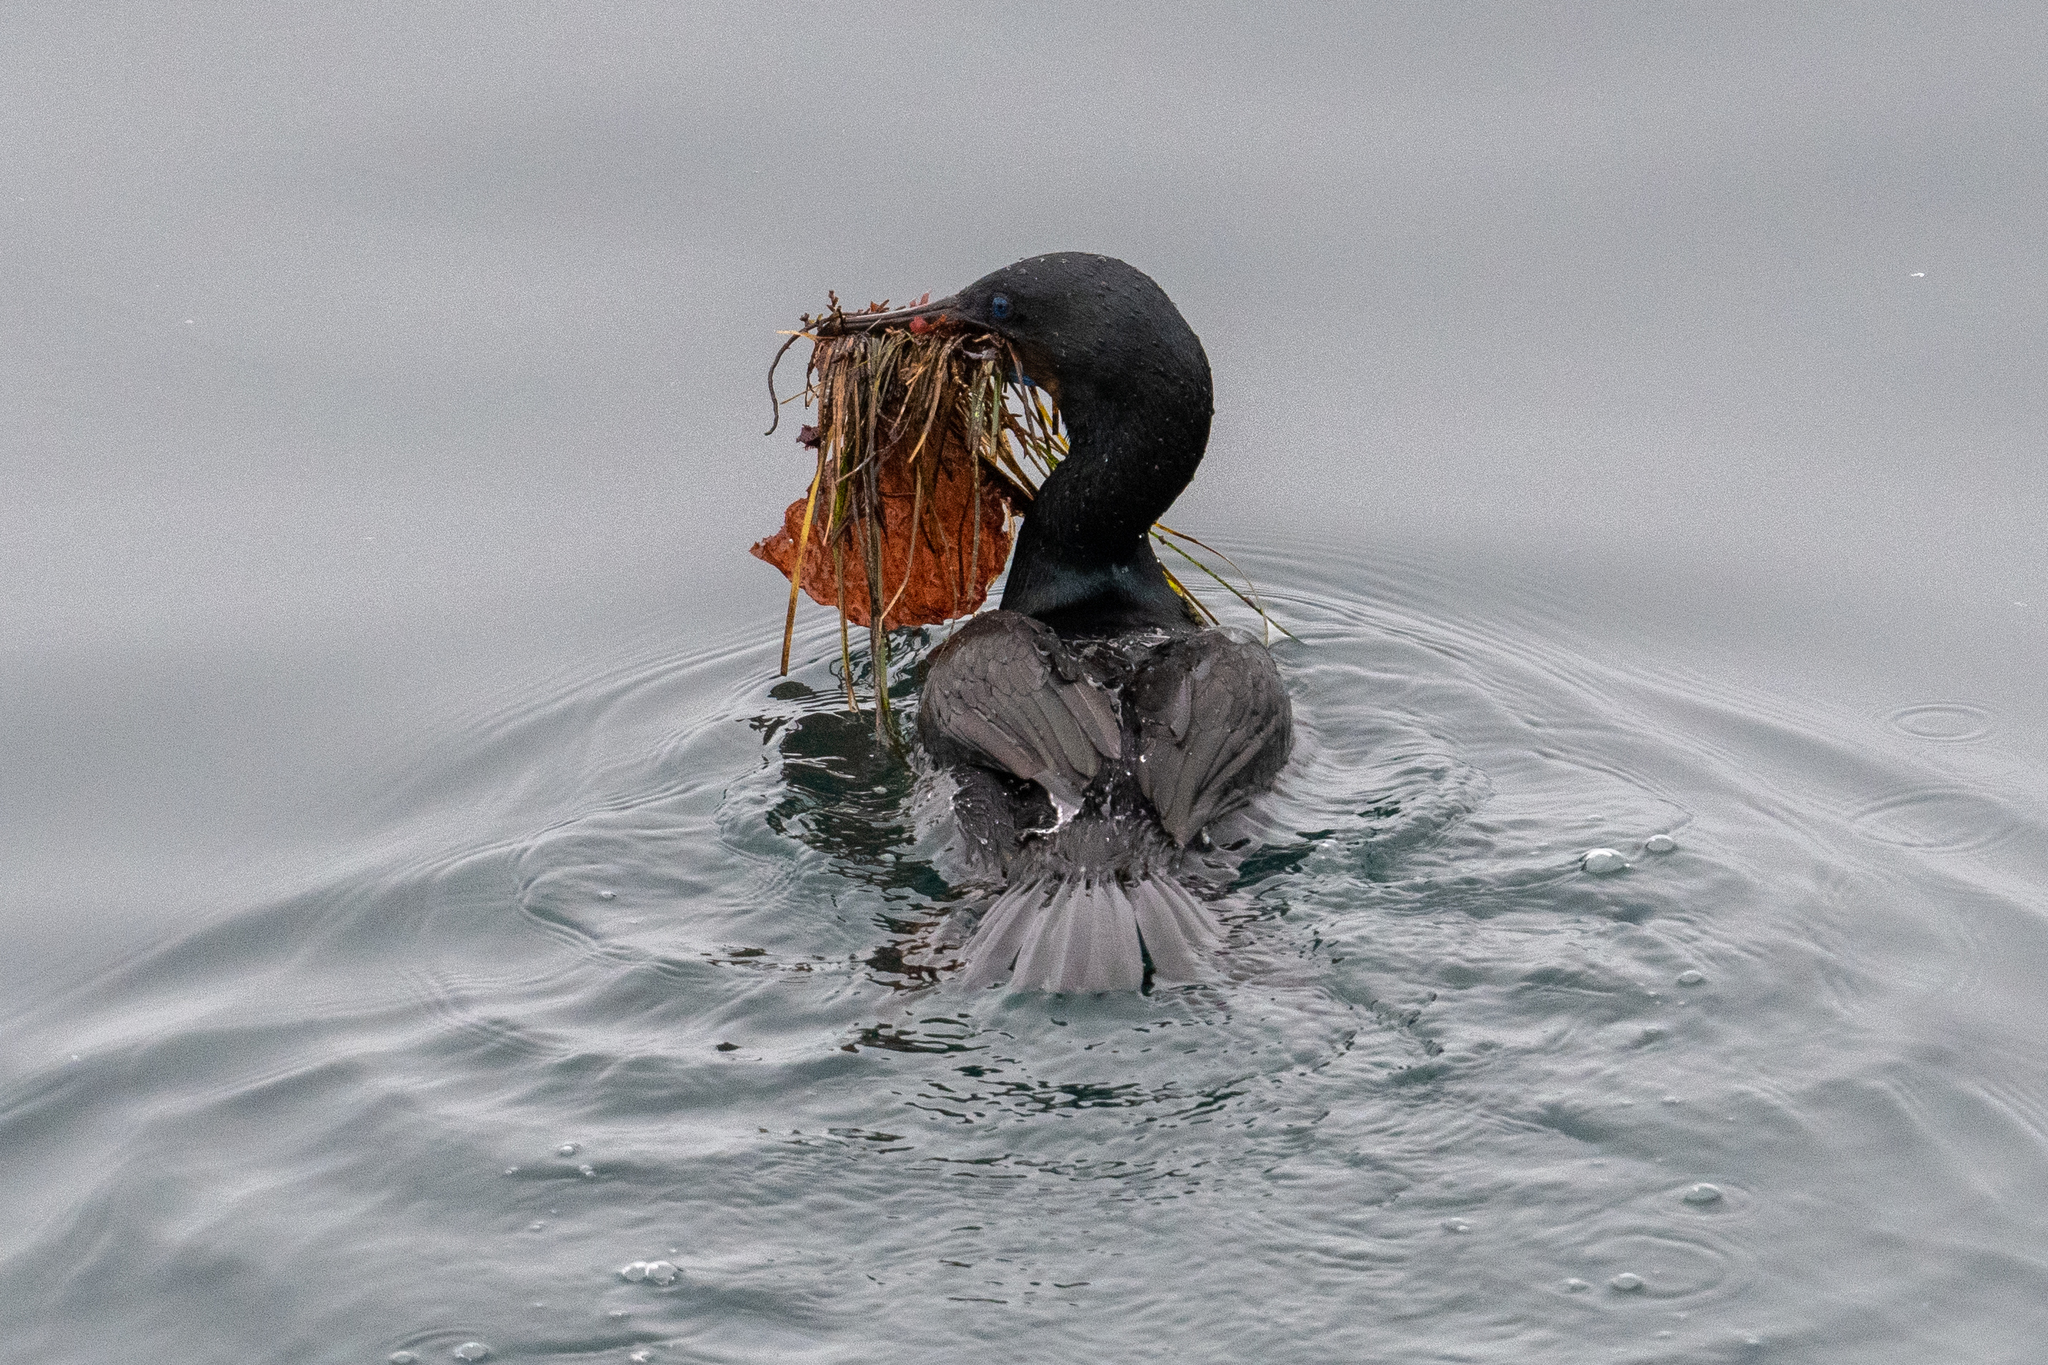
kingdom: Animalia
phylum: Chordata
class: Aves
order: Suliformes
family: Phalacrocoracidae
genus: Urile
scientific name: Urile penicillatus
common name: Brandt's cormorant
